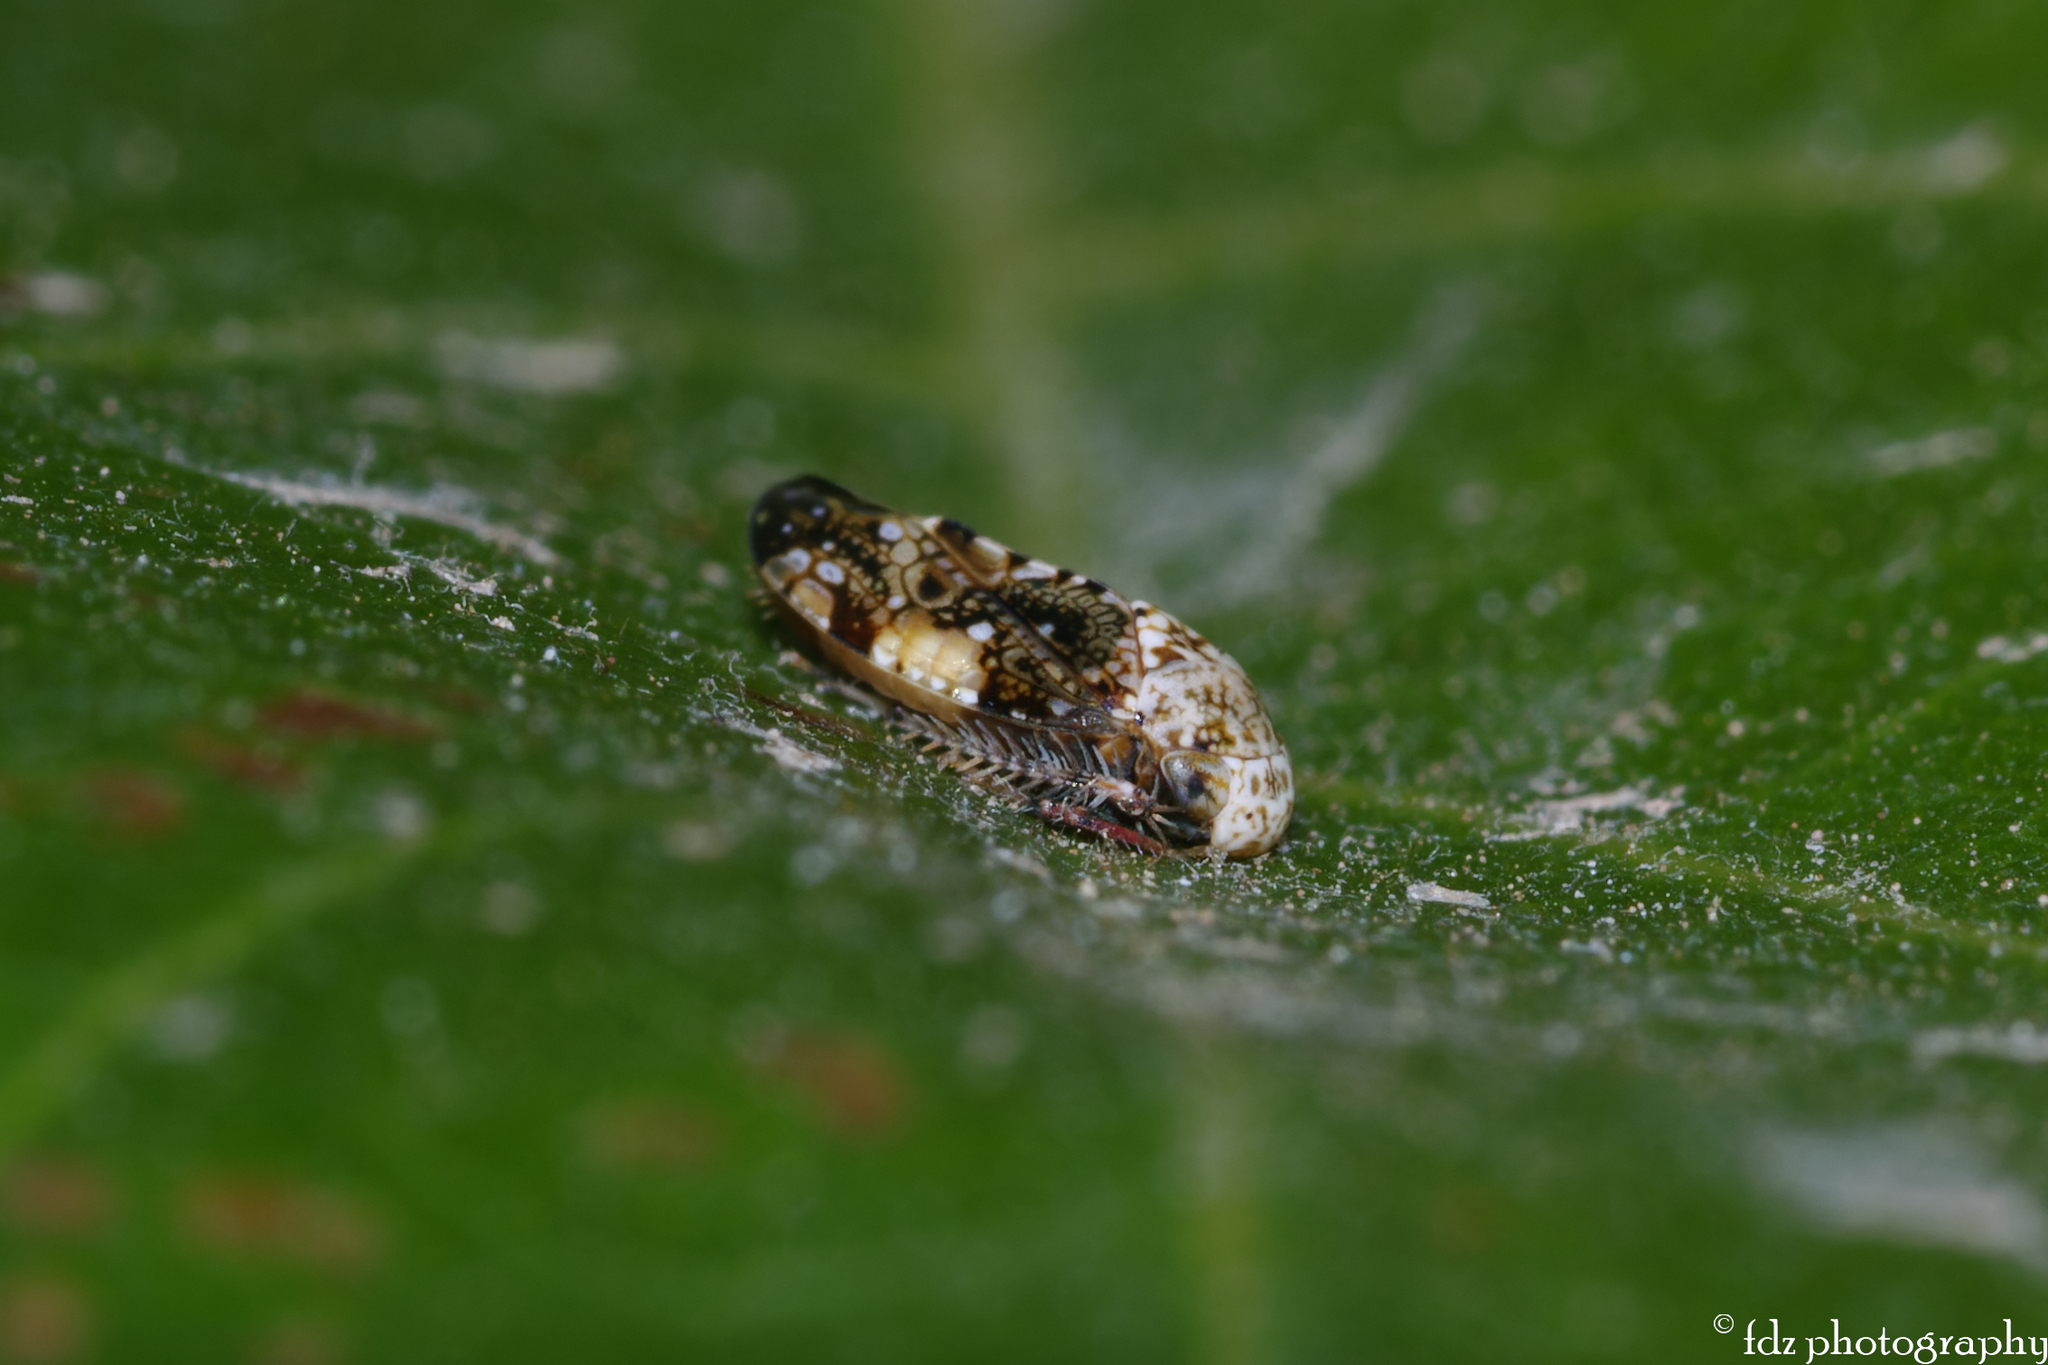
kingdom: Animalia
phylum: Arthropoda
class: Insecta
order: Hemiptera
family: Cicadellidae
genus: Penthimiola
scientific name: Penthimiola bella
